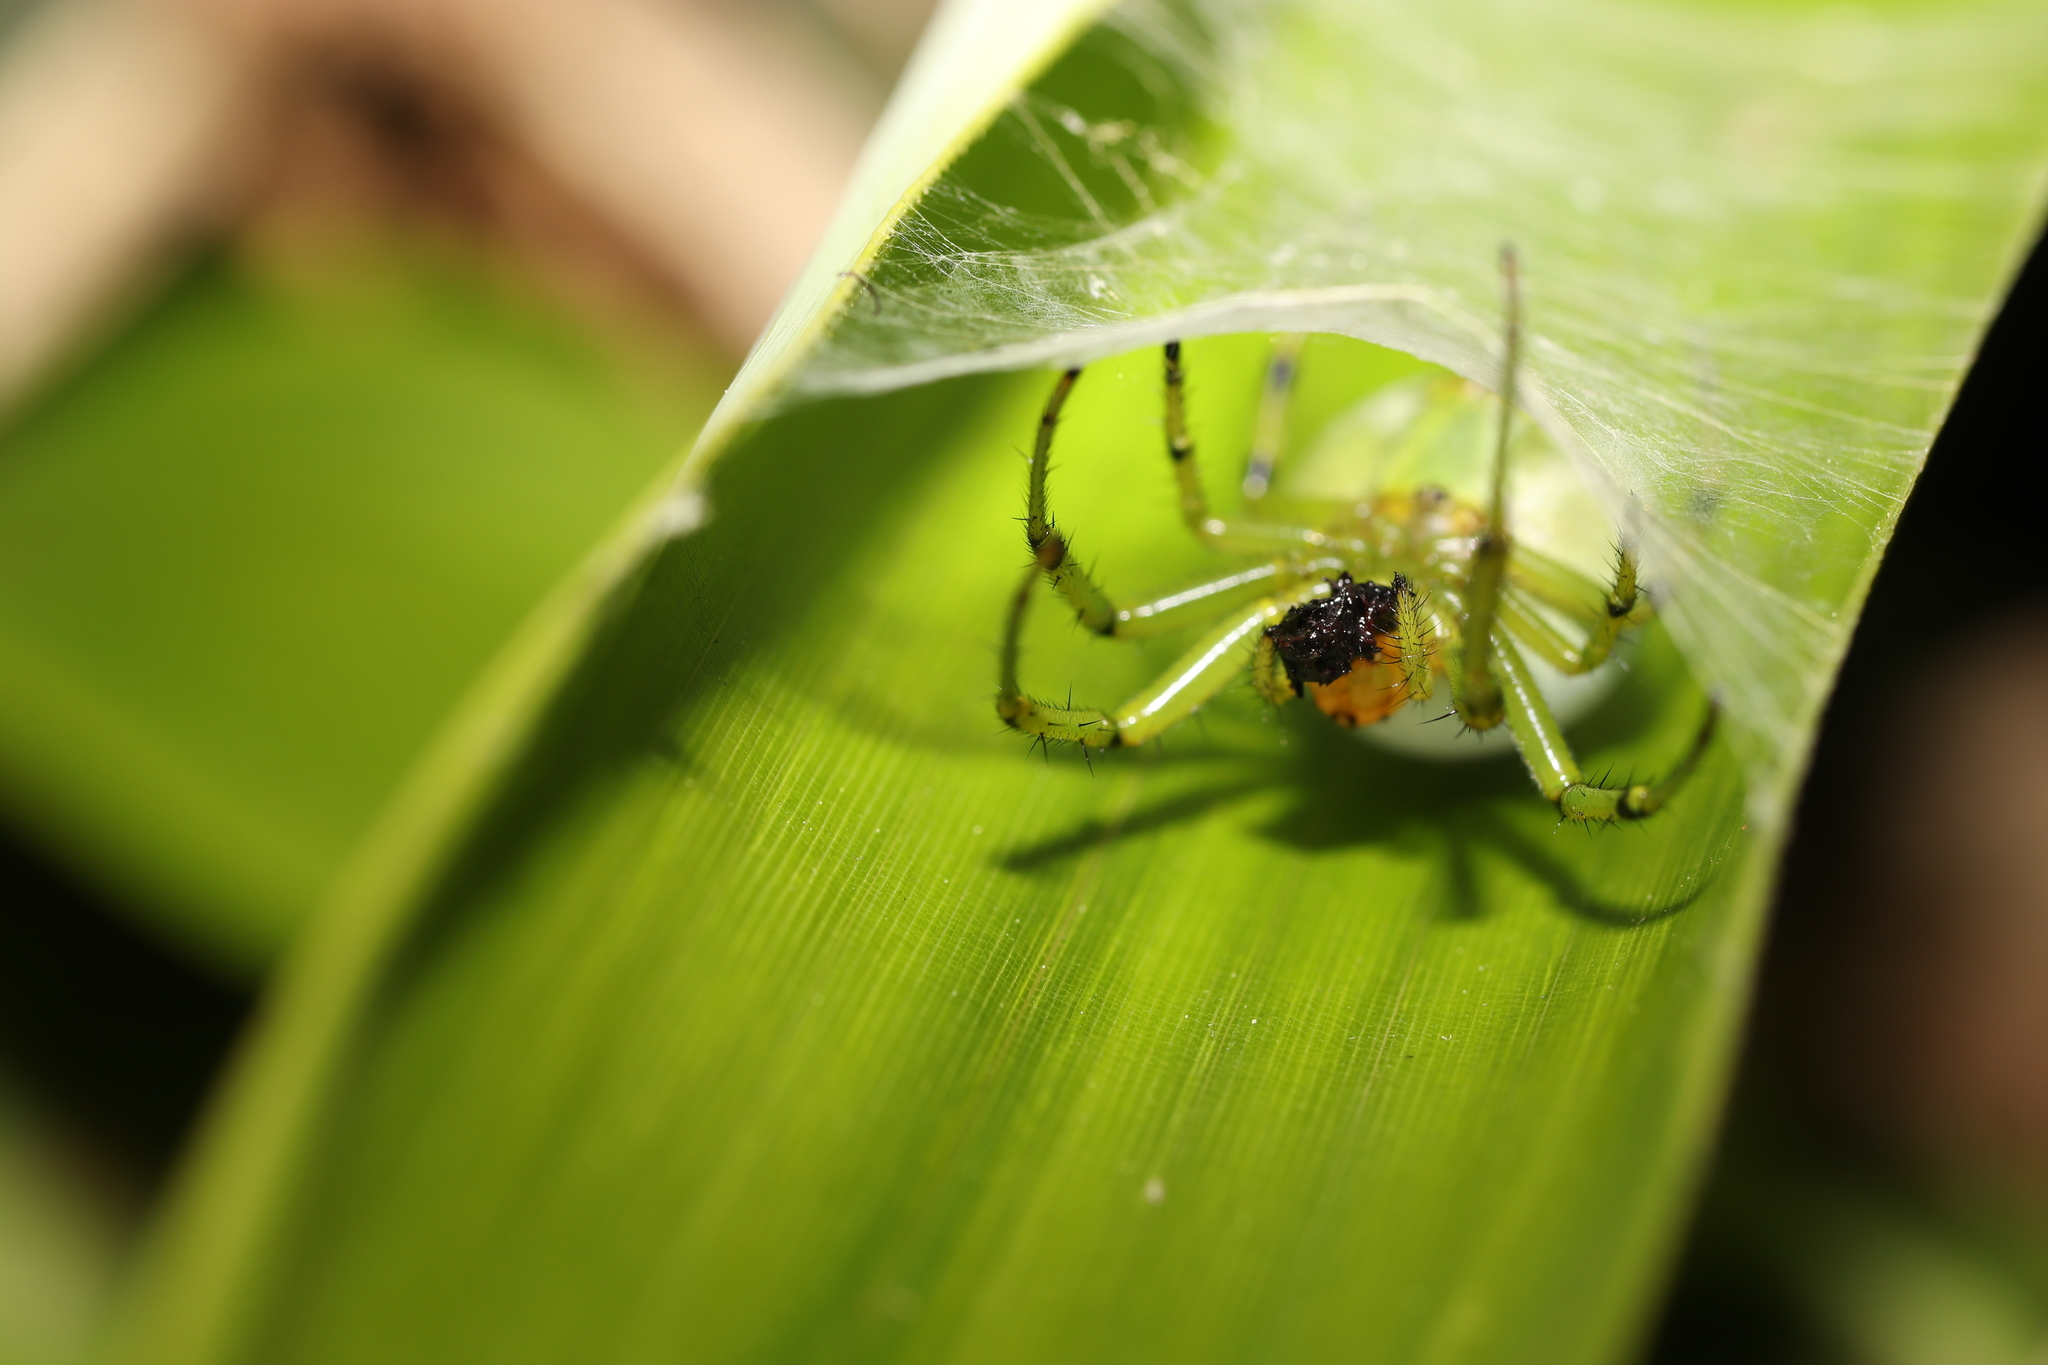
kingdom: Animalia
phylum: Arthropoda
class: Arachnida
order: Araneae
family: Araneidae
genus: Aoaraneus
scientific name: Aoaraneus pentagrammicus
